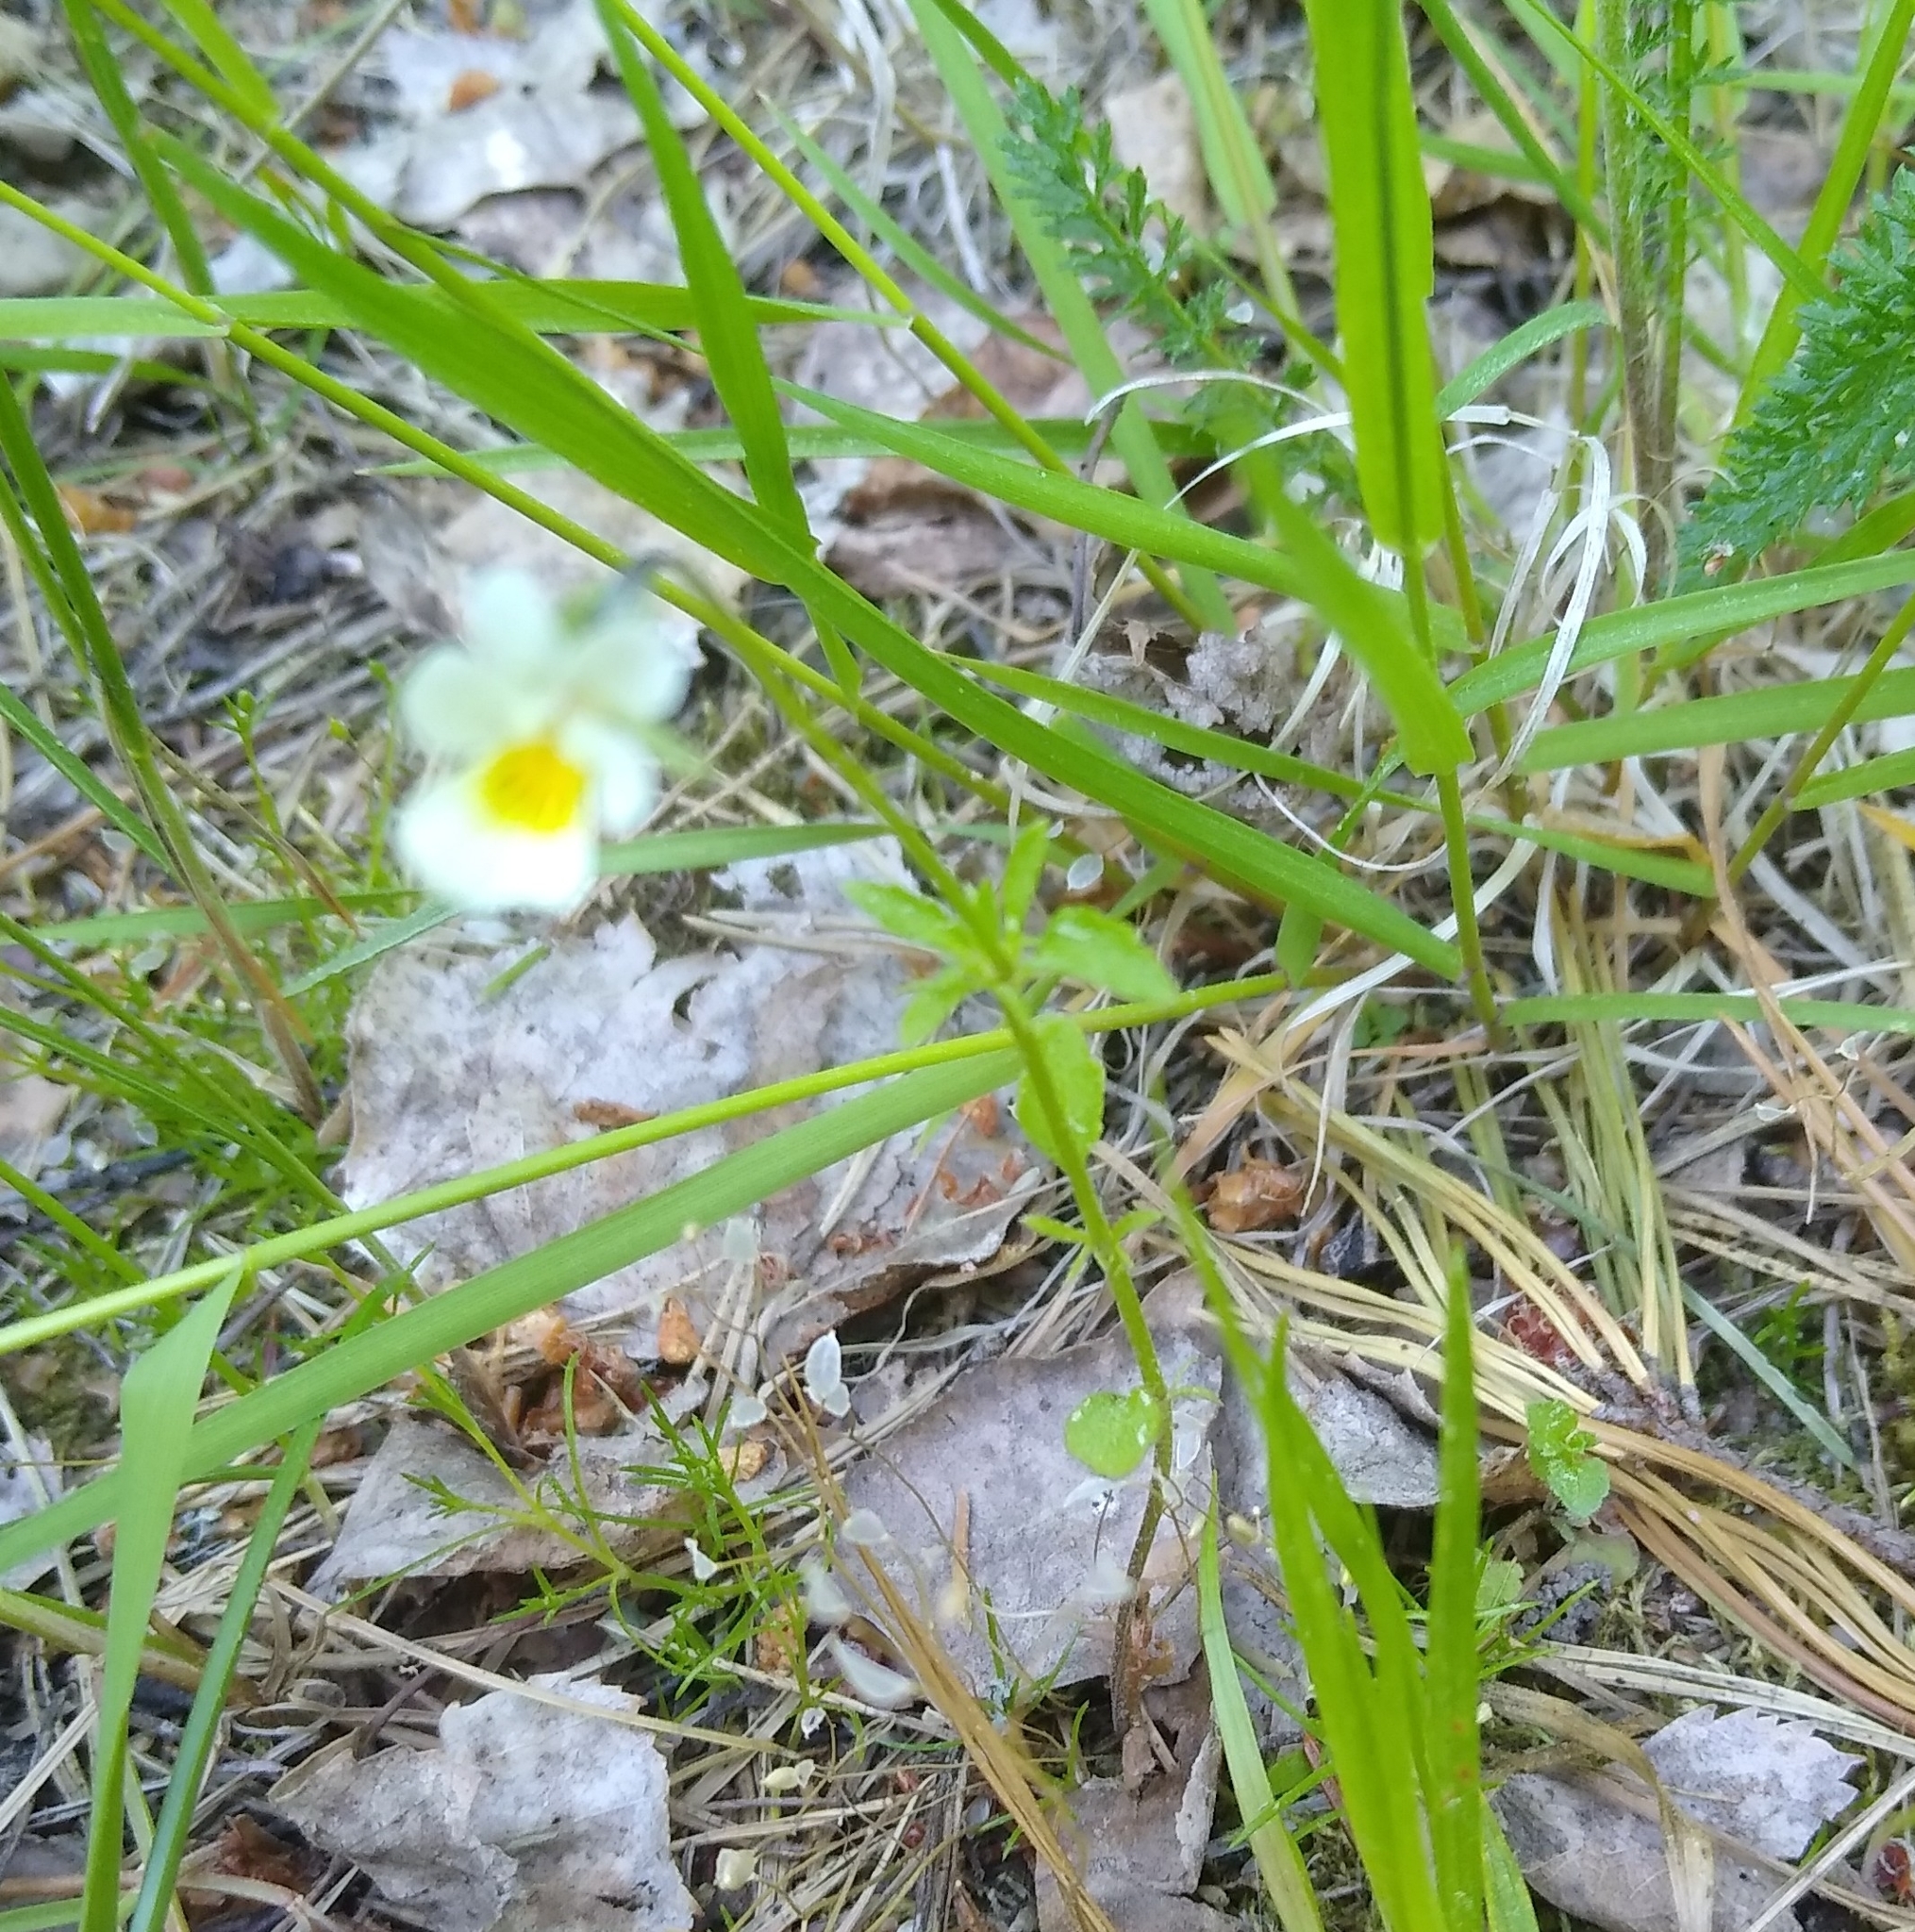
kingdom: Plantae
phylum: Tracheophyta
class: Magnoliopsida
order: Malpighiales
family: Violaceae
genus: Viola
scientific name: Viola arvensis
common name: Field pansy
